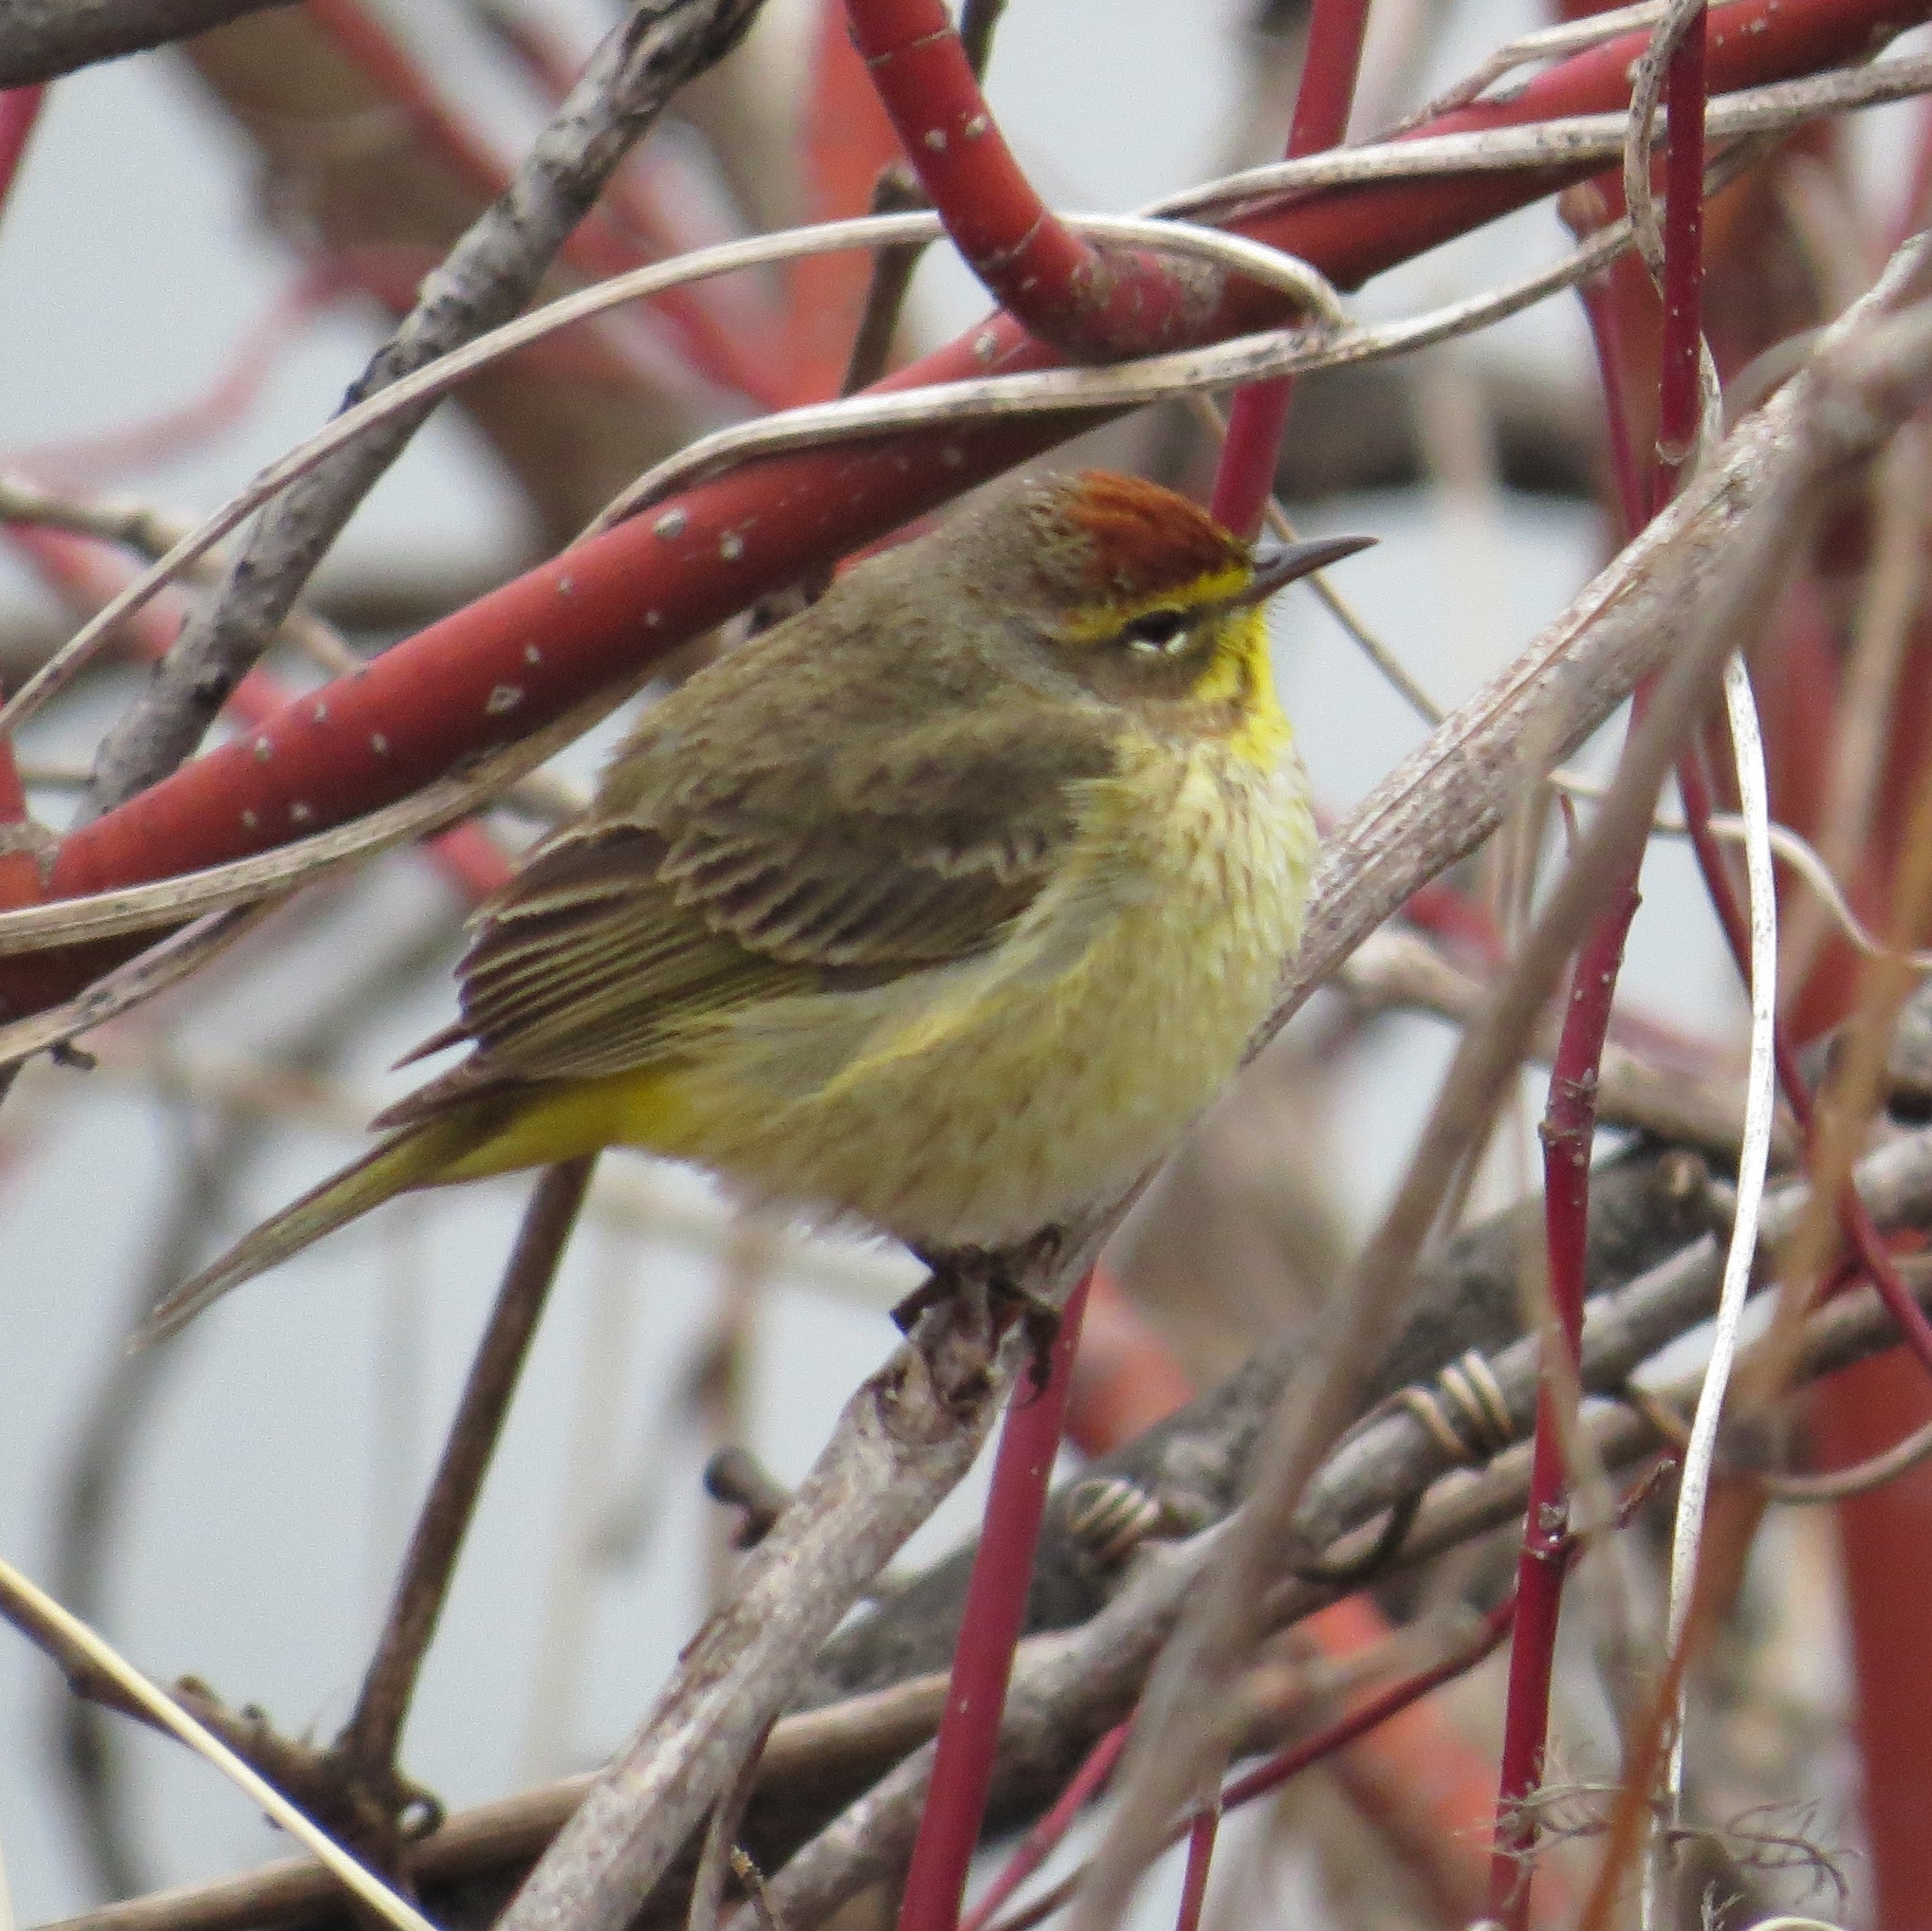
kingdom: Animalia
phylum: Chordata
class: Aves
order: Passeriformes
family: Parulidae
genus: Setophaga
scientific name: Setophaga palmarum
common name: Palm warbler
